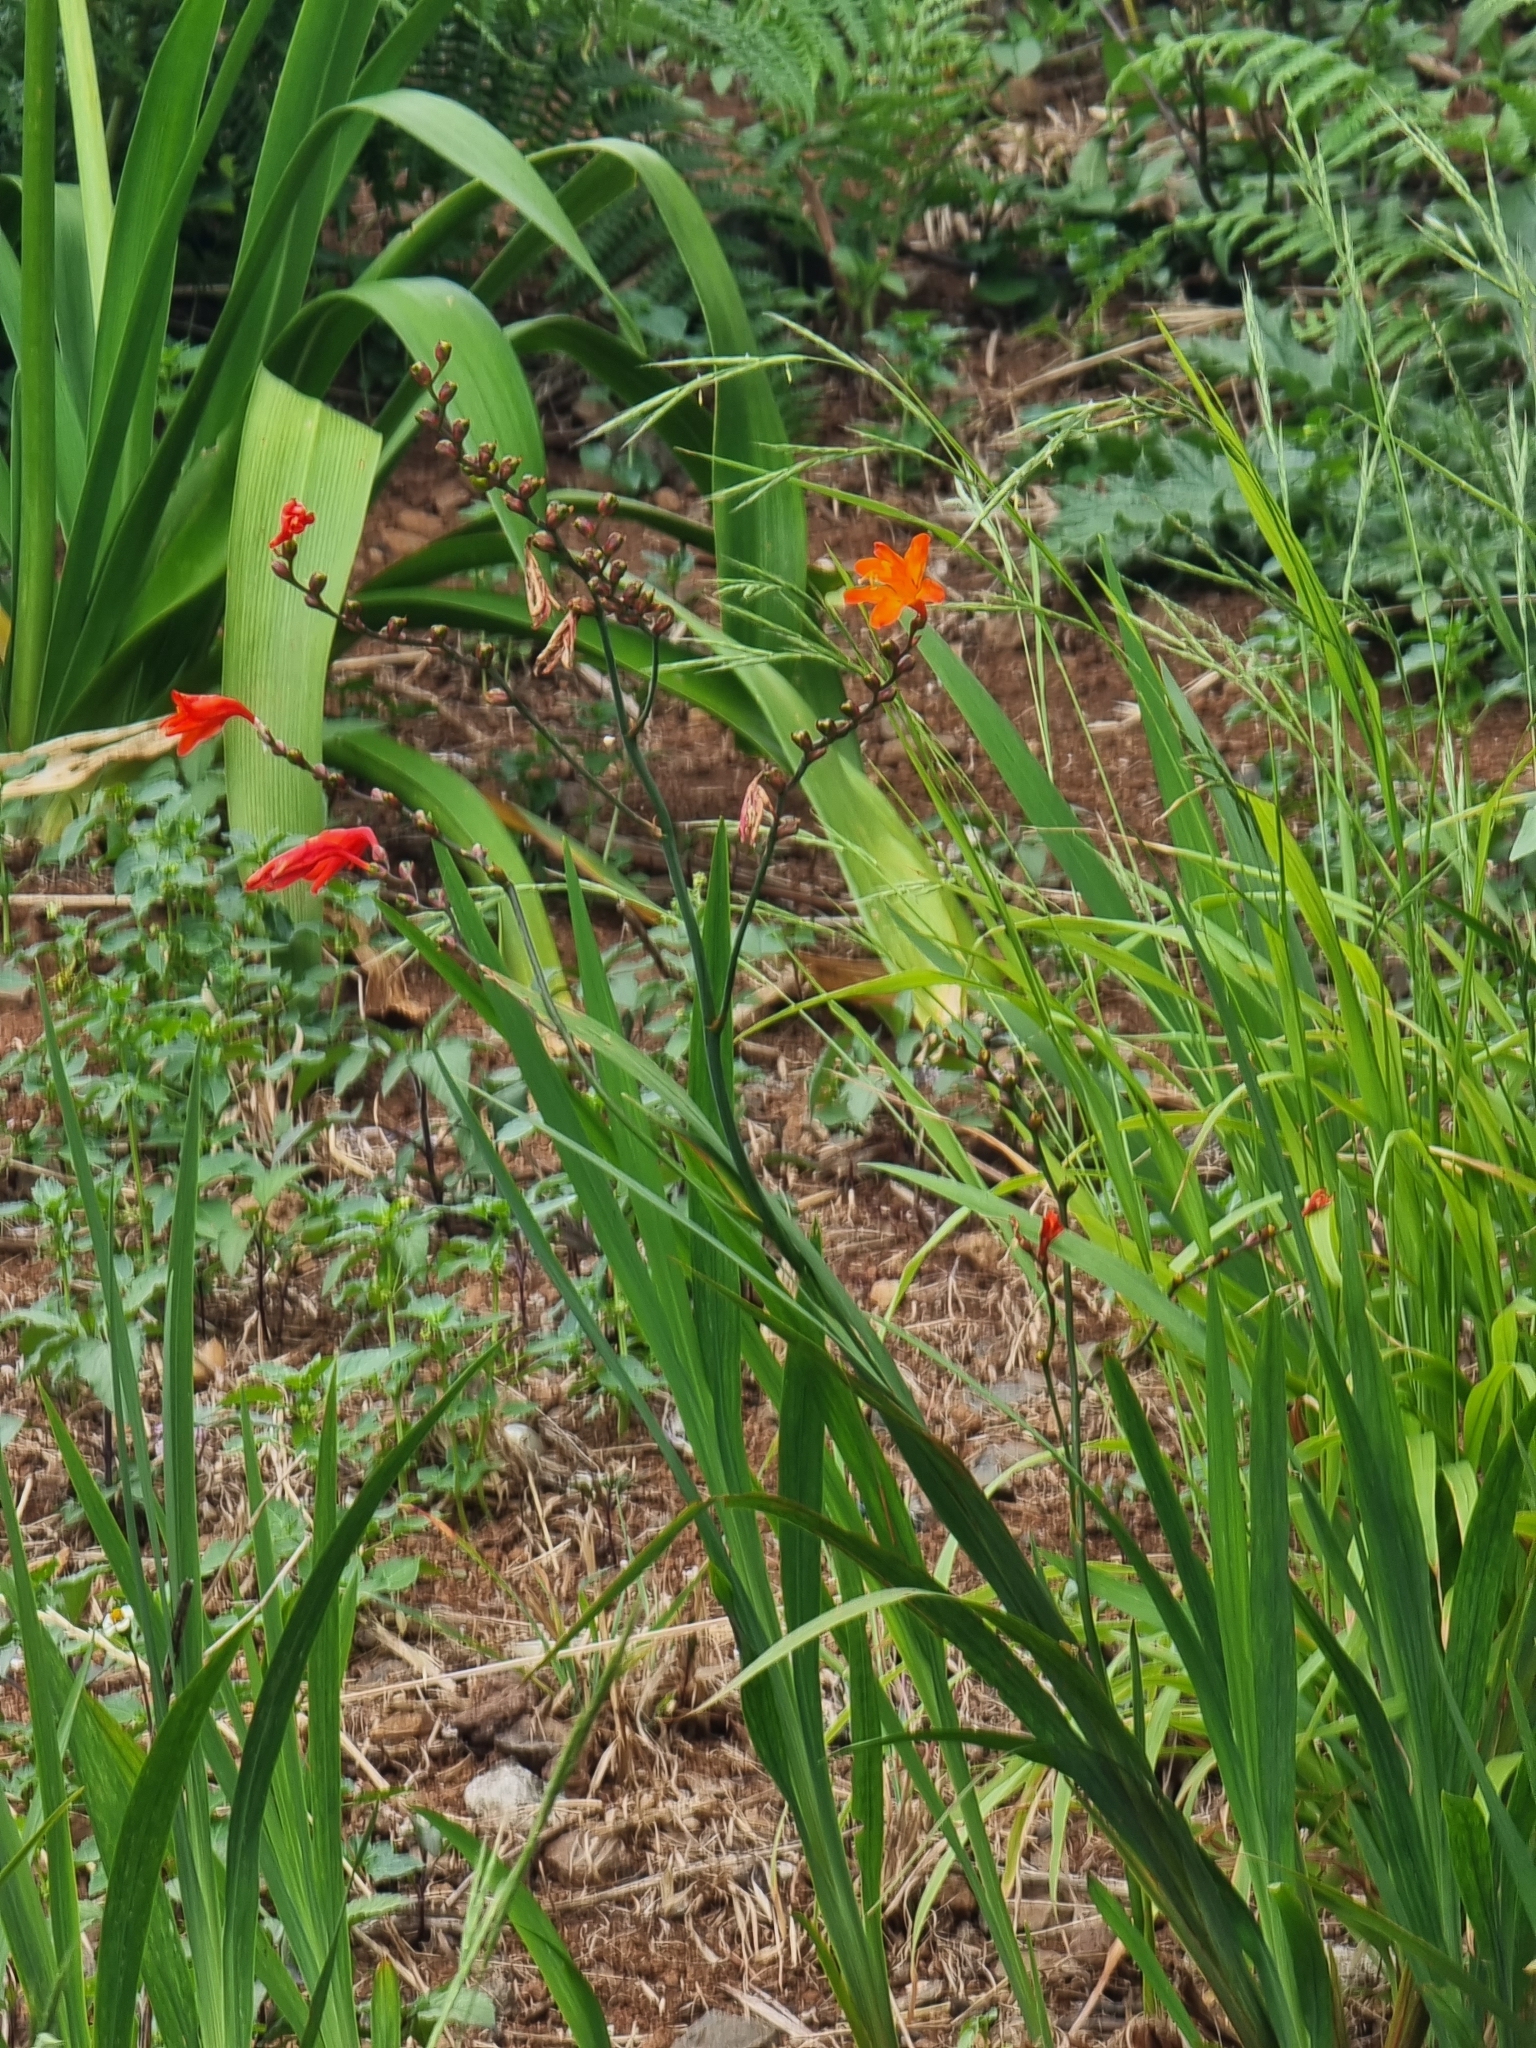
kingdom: Plantae
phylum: Tracheophyta
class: Liliopsida
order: Asparagales
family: Iridaceae
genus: Crocosmia
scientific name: Crocosmia crocosmiiflora
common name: Montbretia
